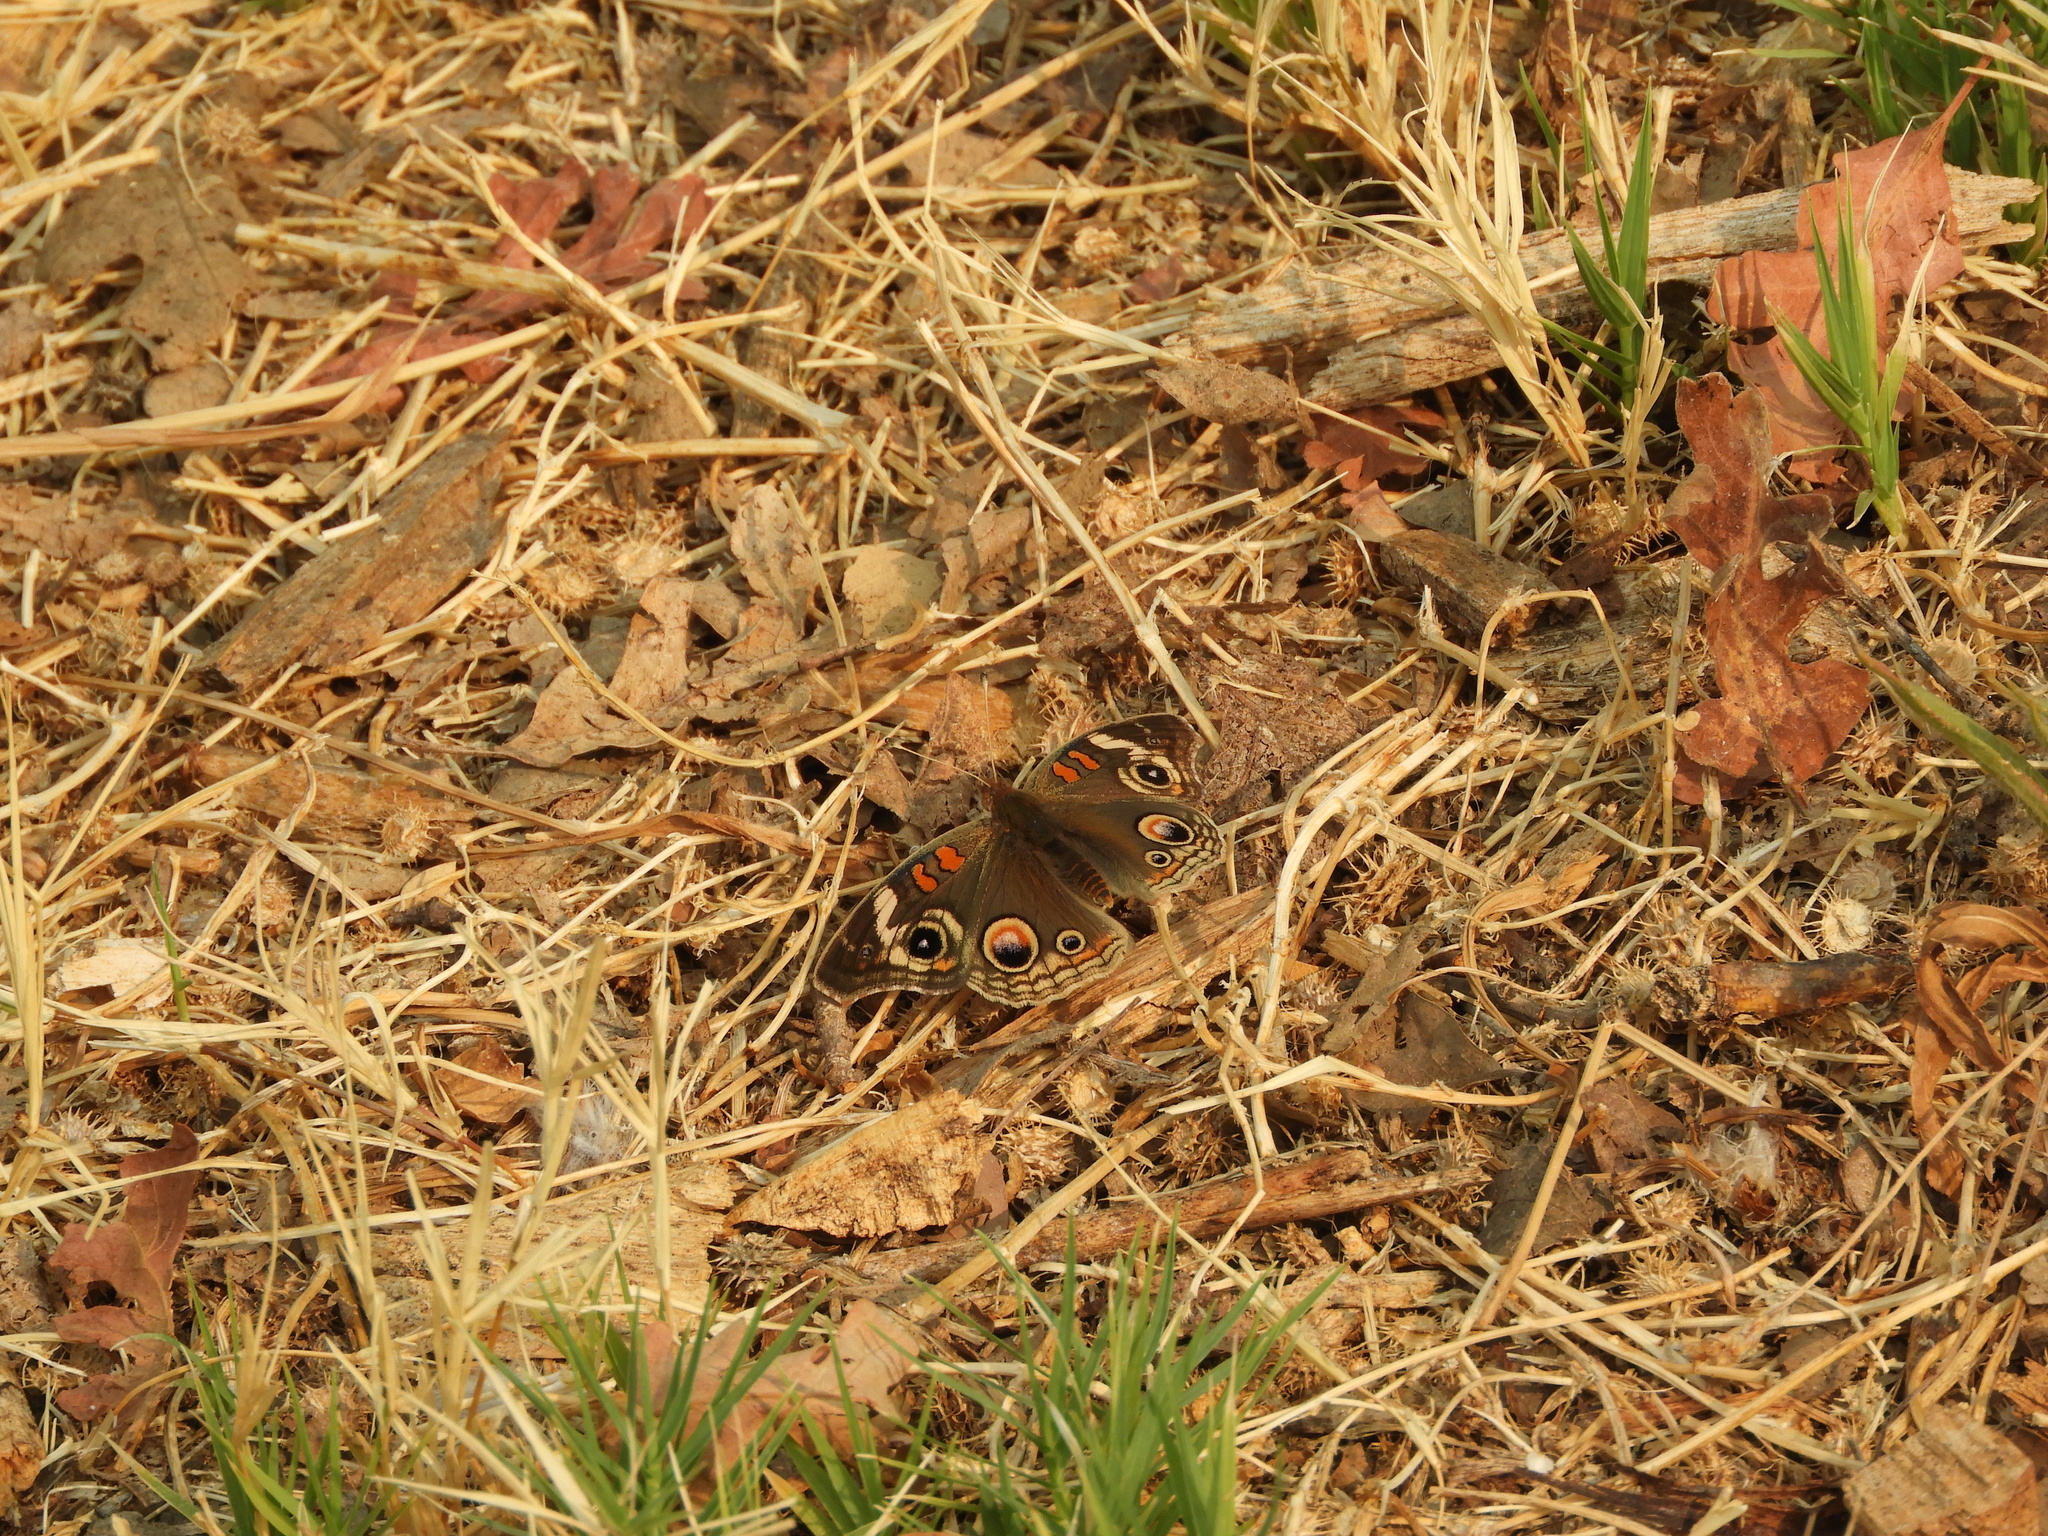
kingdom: Animalia
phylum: Arthropoda
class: Insecta
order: Lepidoptera
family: Nymphalidae
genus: Junonia
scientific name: Junonia grisea
